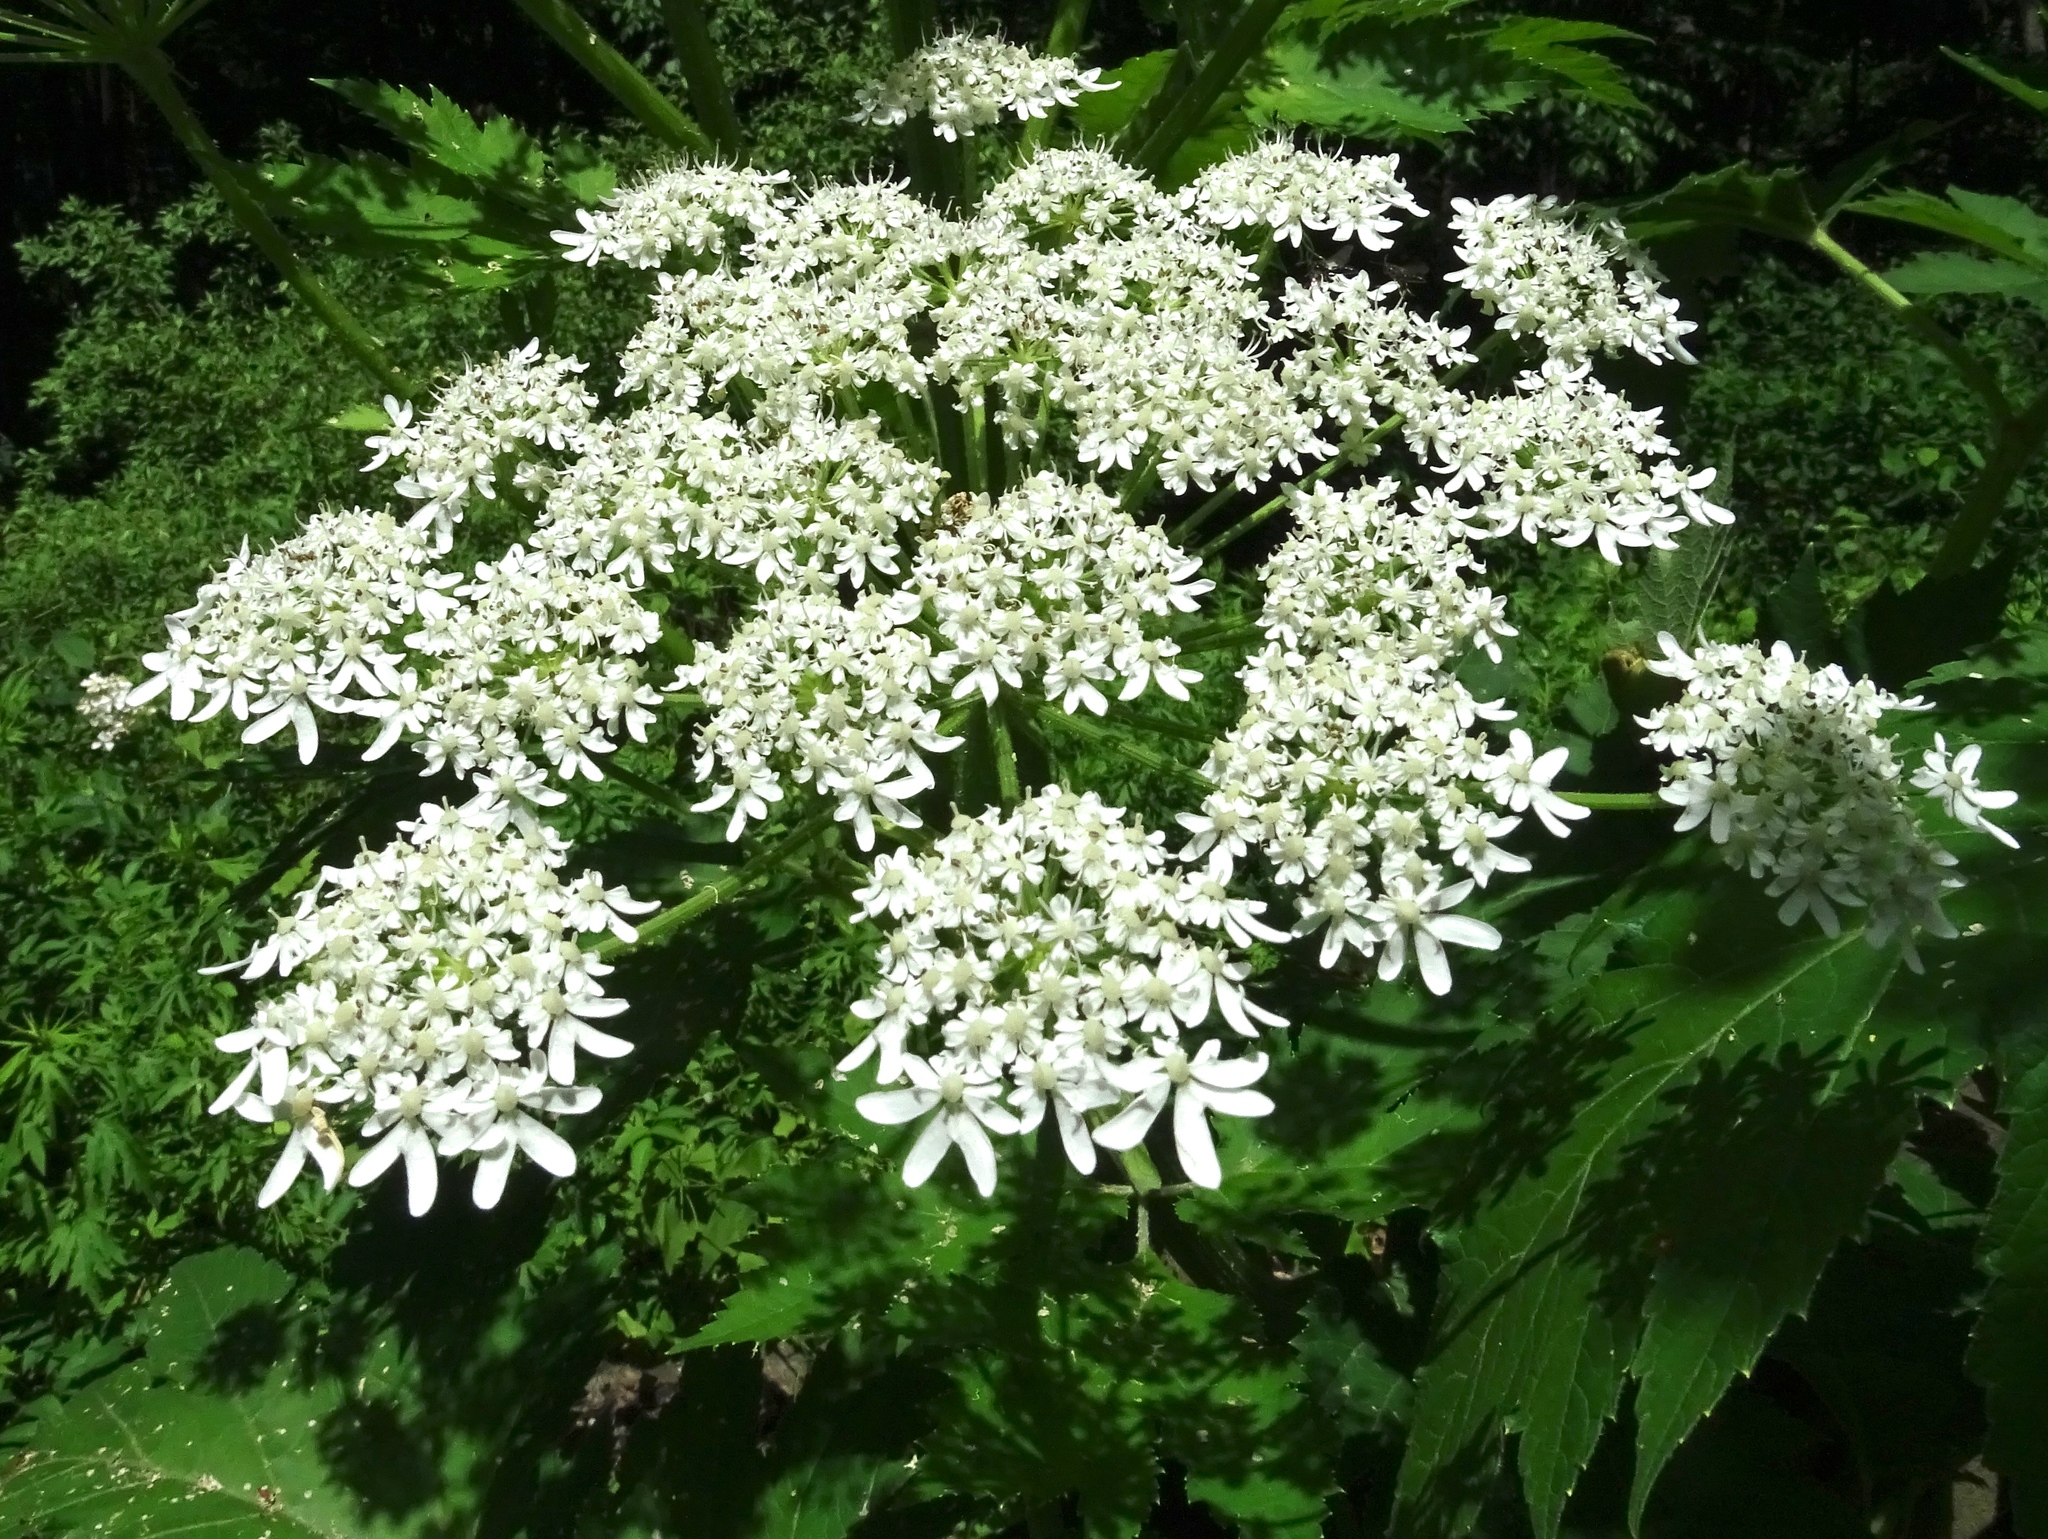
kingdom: Plantae
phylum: Tracheophyta
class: Magnoliopsida
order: Apiales
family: Apiaceae
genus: Heracleum
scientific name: Heracleum maximum
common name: American cow parsnip
